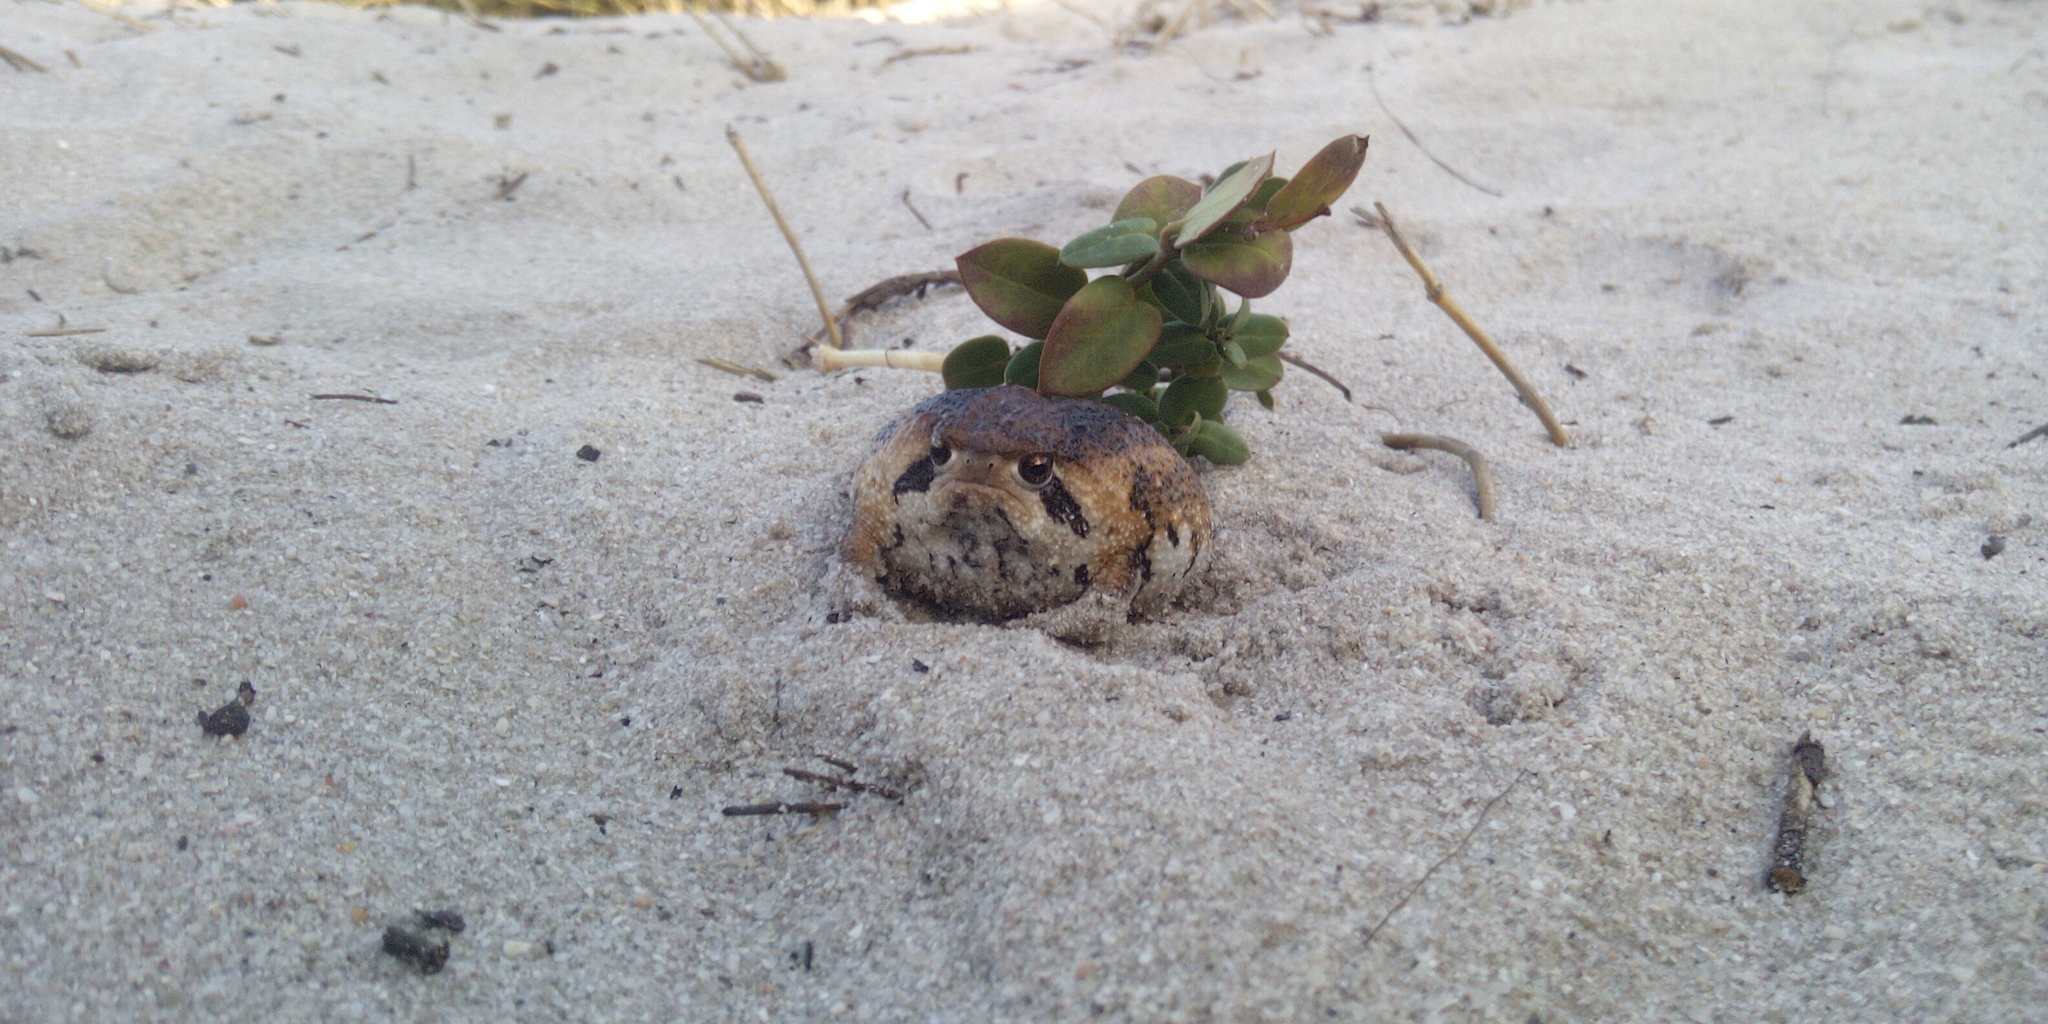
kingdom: Animalia
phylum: Chordata
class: Amphibia
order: Anura
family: Brevicipitidae
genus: Breviceps
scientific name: Breviceps rosei
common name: Rose's short-headed frog
